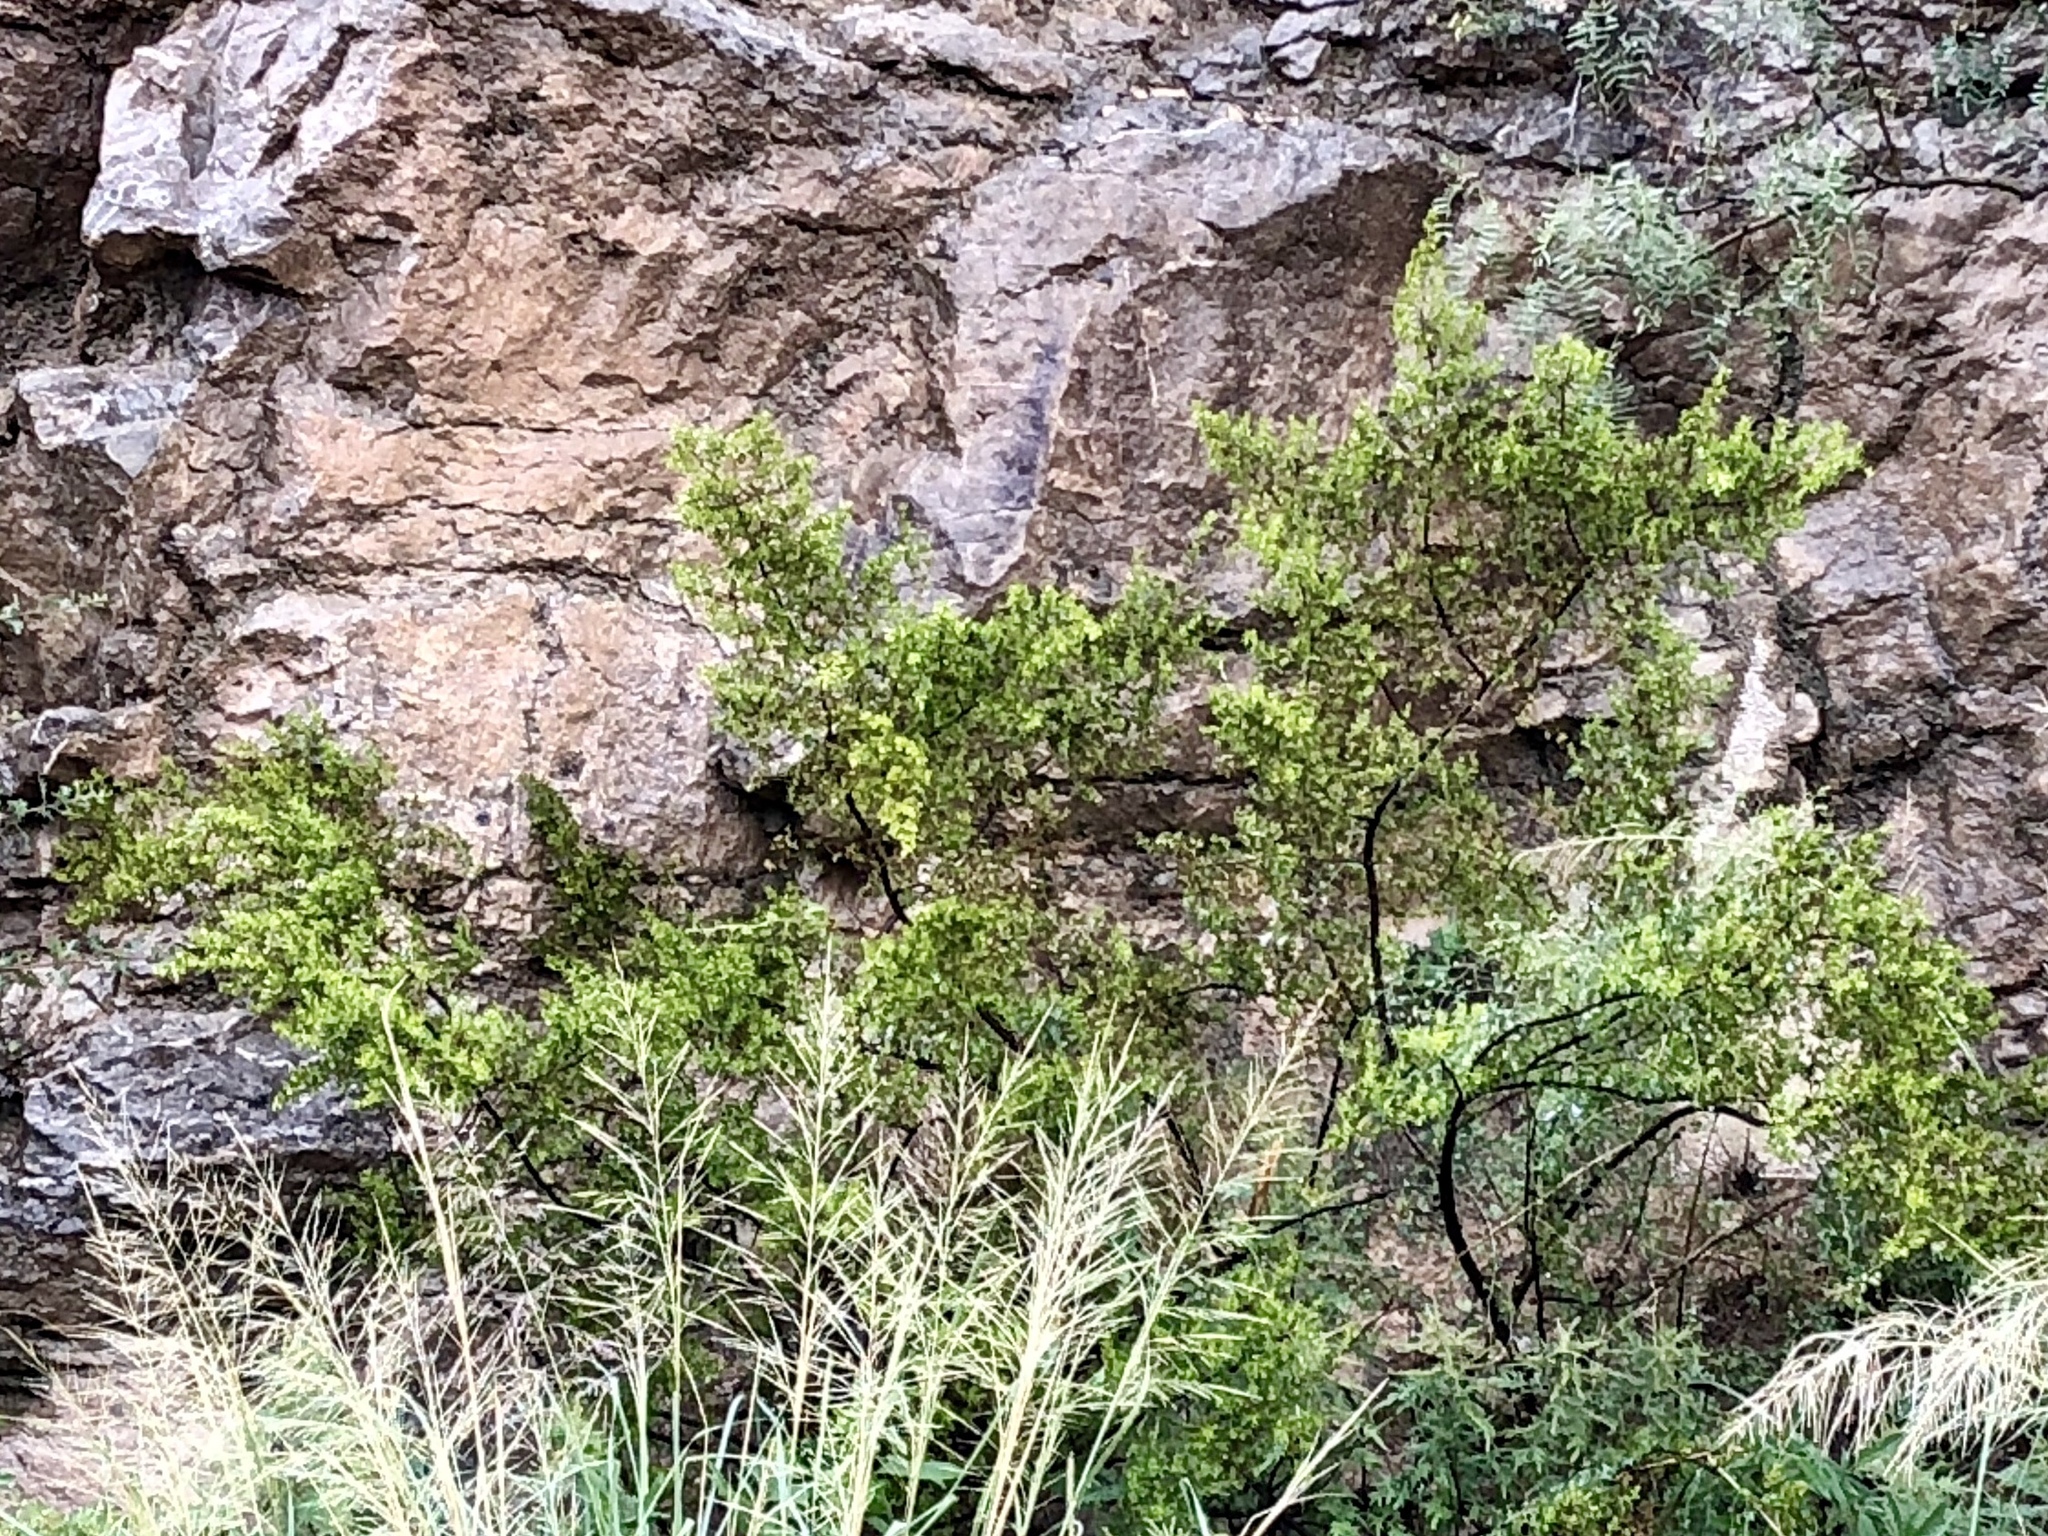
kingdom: Plantae
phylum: Tracheophyta
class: Magnoliopsida
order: Zygophyllales
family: Zygophyllaceae
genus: Larrea
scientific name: Larrea tridentata
